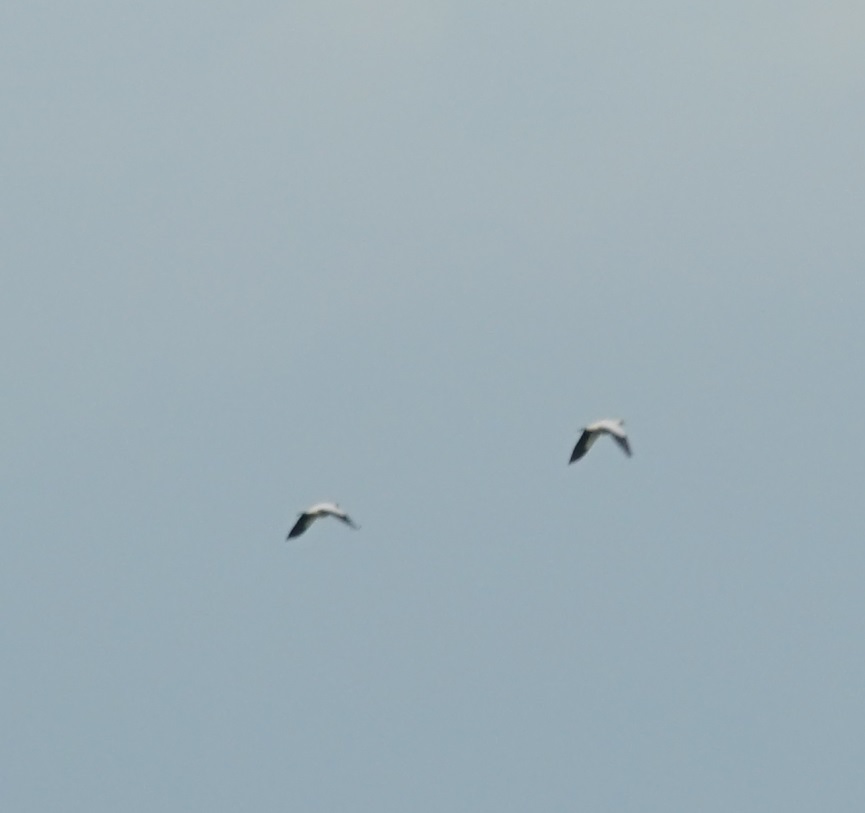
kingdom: Animalia
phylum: Chordata
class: Aves
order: Columbiformes
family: Columbidae
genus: Ducula
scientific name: Ducula spilorrhoa
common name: Torresian imperial pigeon
